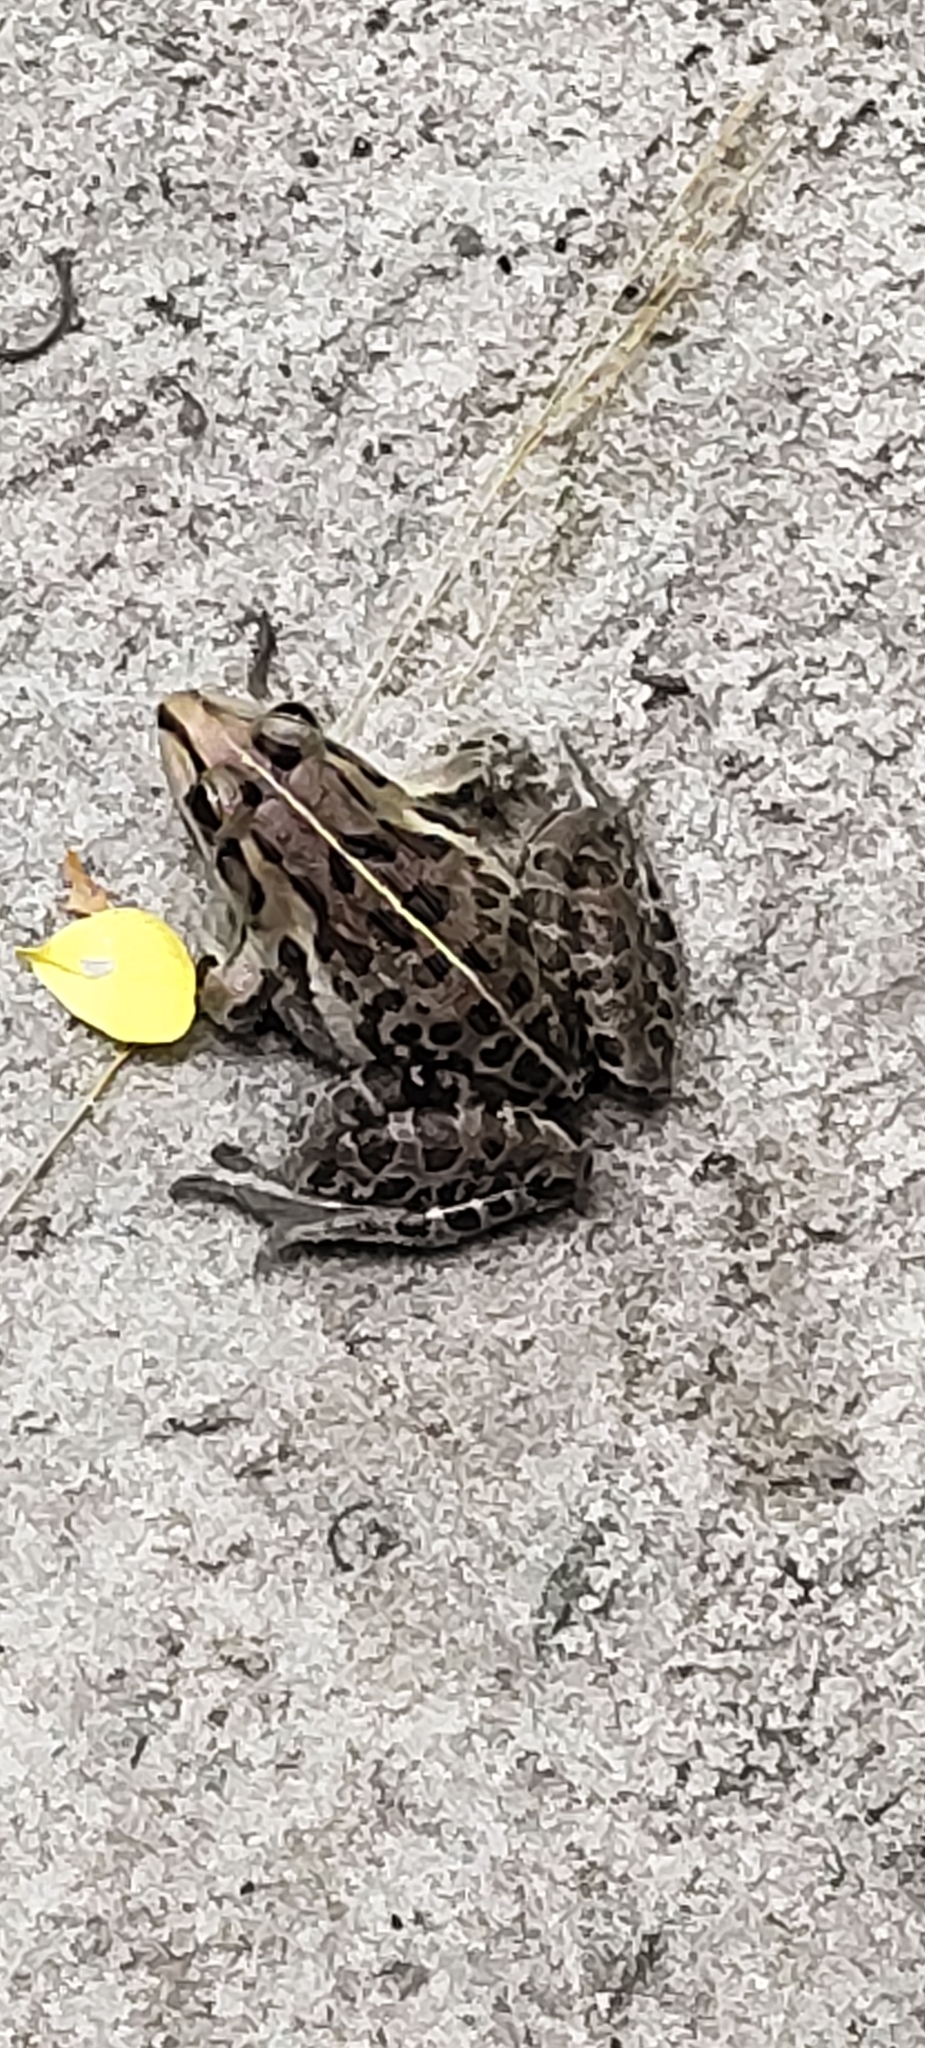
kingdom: Animalia
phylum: Chordata
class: Amphibia
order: Anura
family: Dicroglossidae
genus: Hoplobatrachus
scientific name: Hoplobatrachus tigerinus
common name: Indian bullfrog
